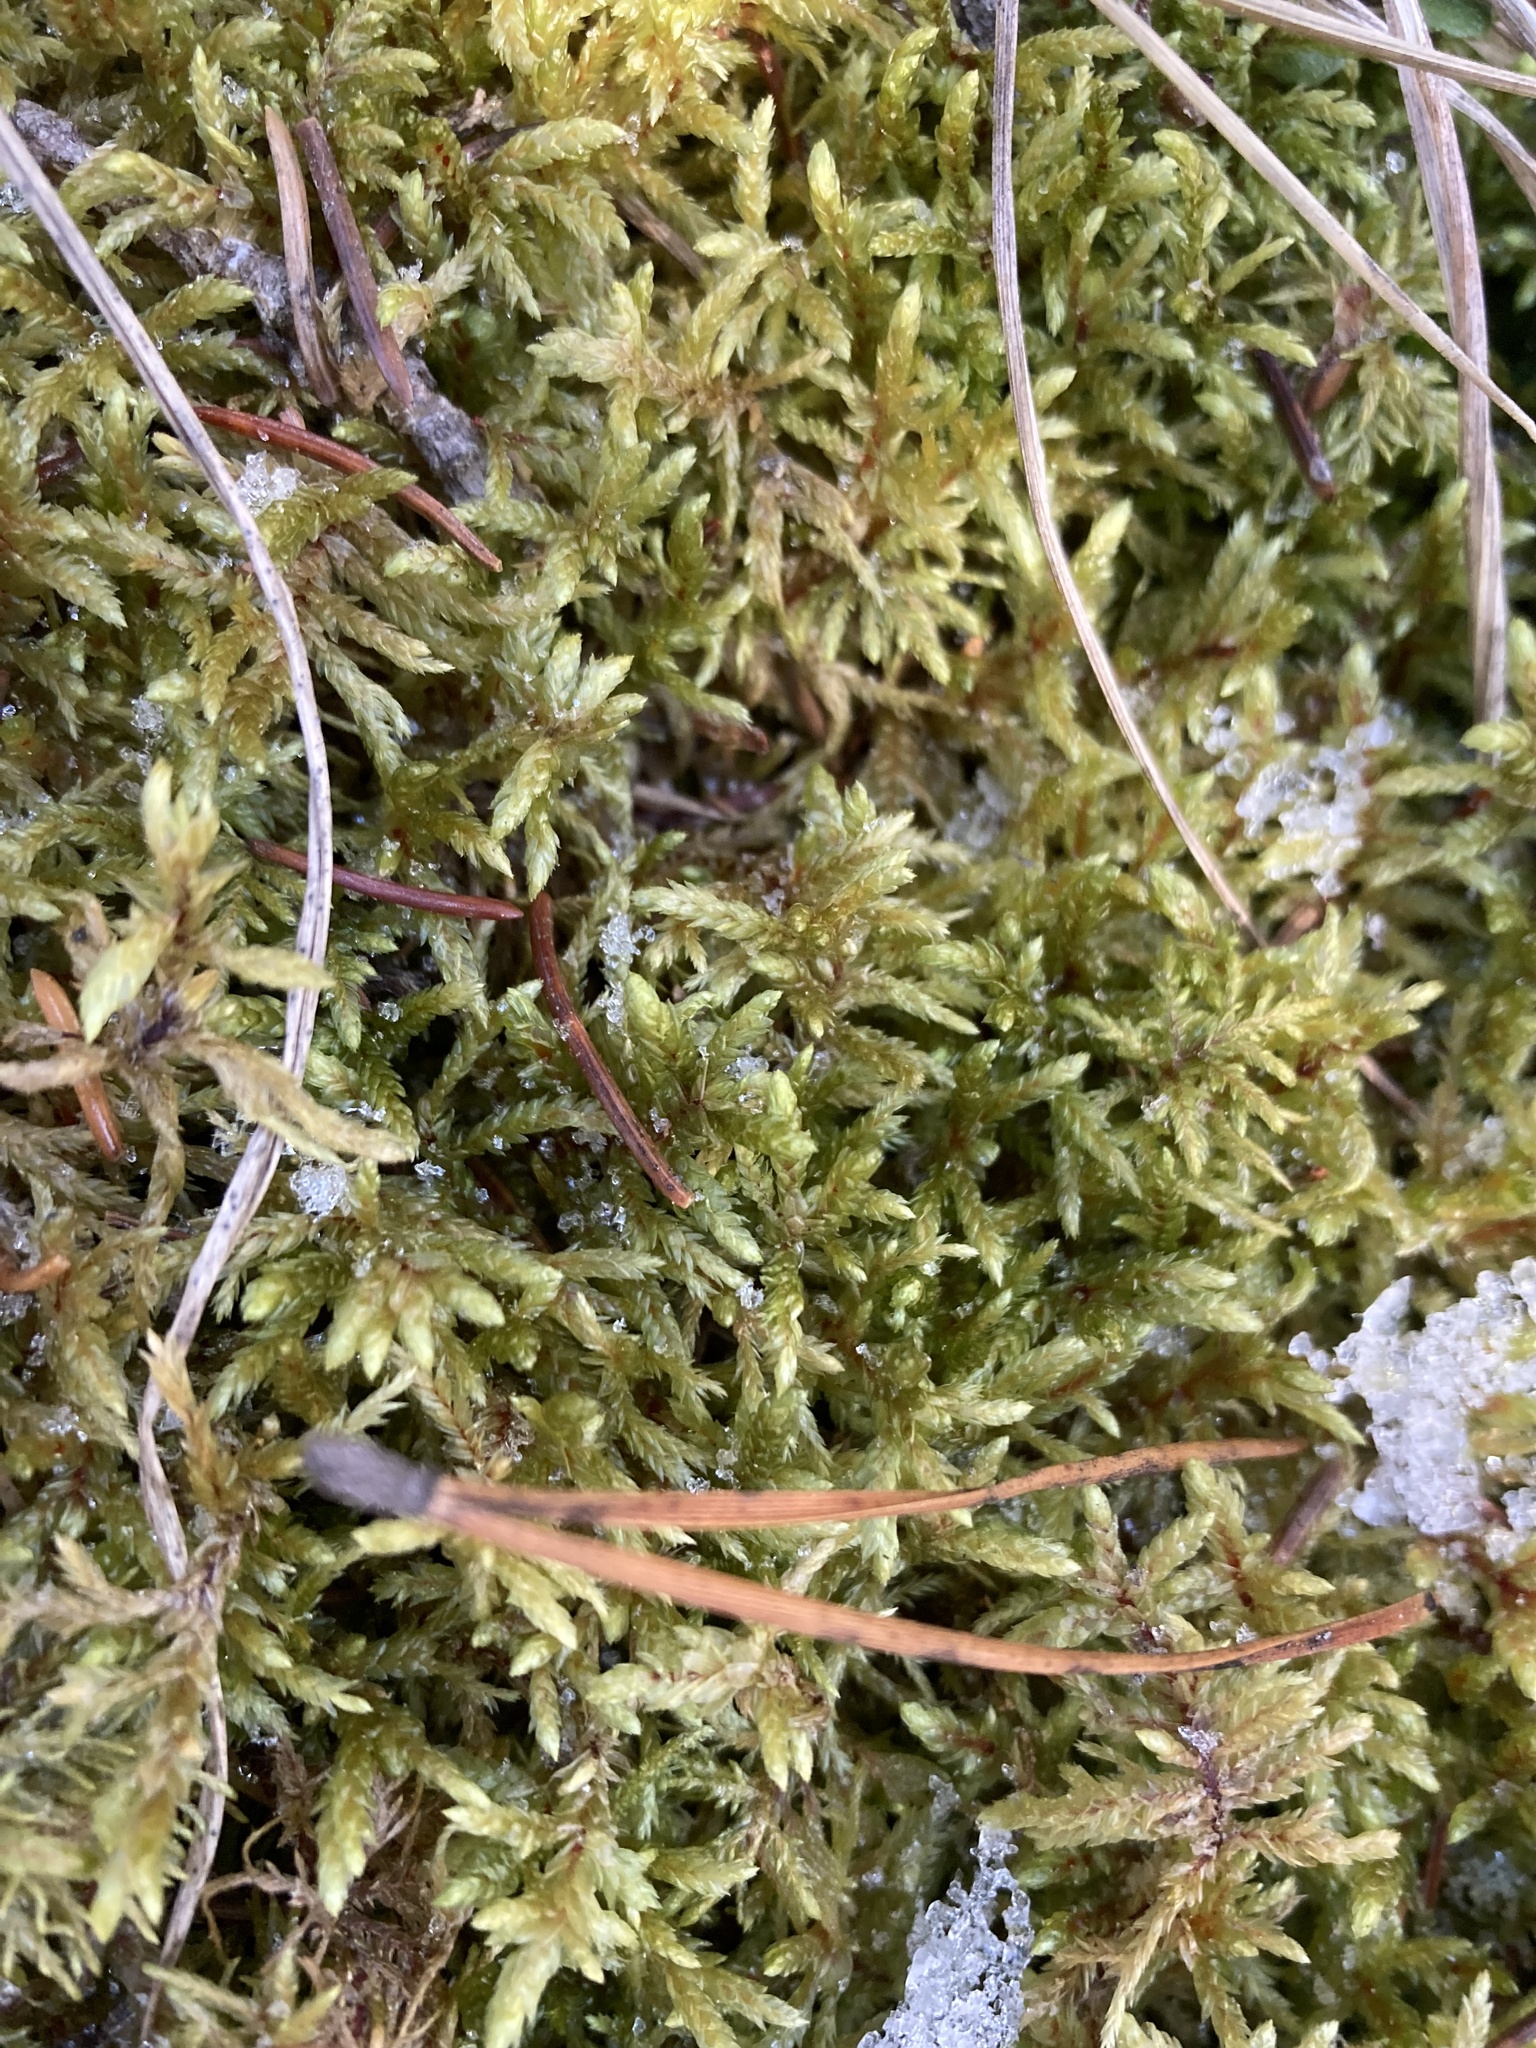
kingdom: Plantae
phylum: Bryophyta
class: Bryopsida
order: Hypnales
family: Hylocomiaceae
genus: Pleurozium
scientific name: Pleurozium schreberi
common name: Red-stemmed feather moss
